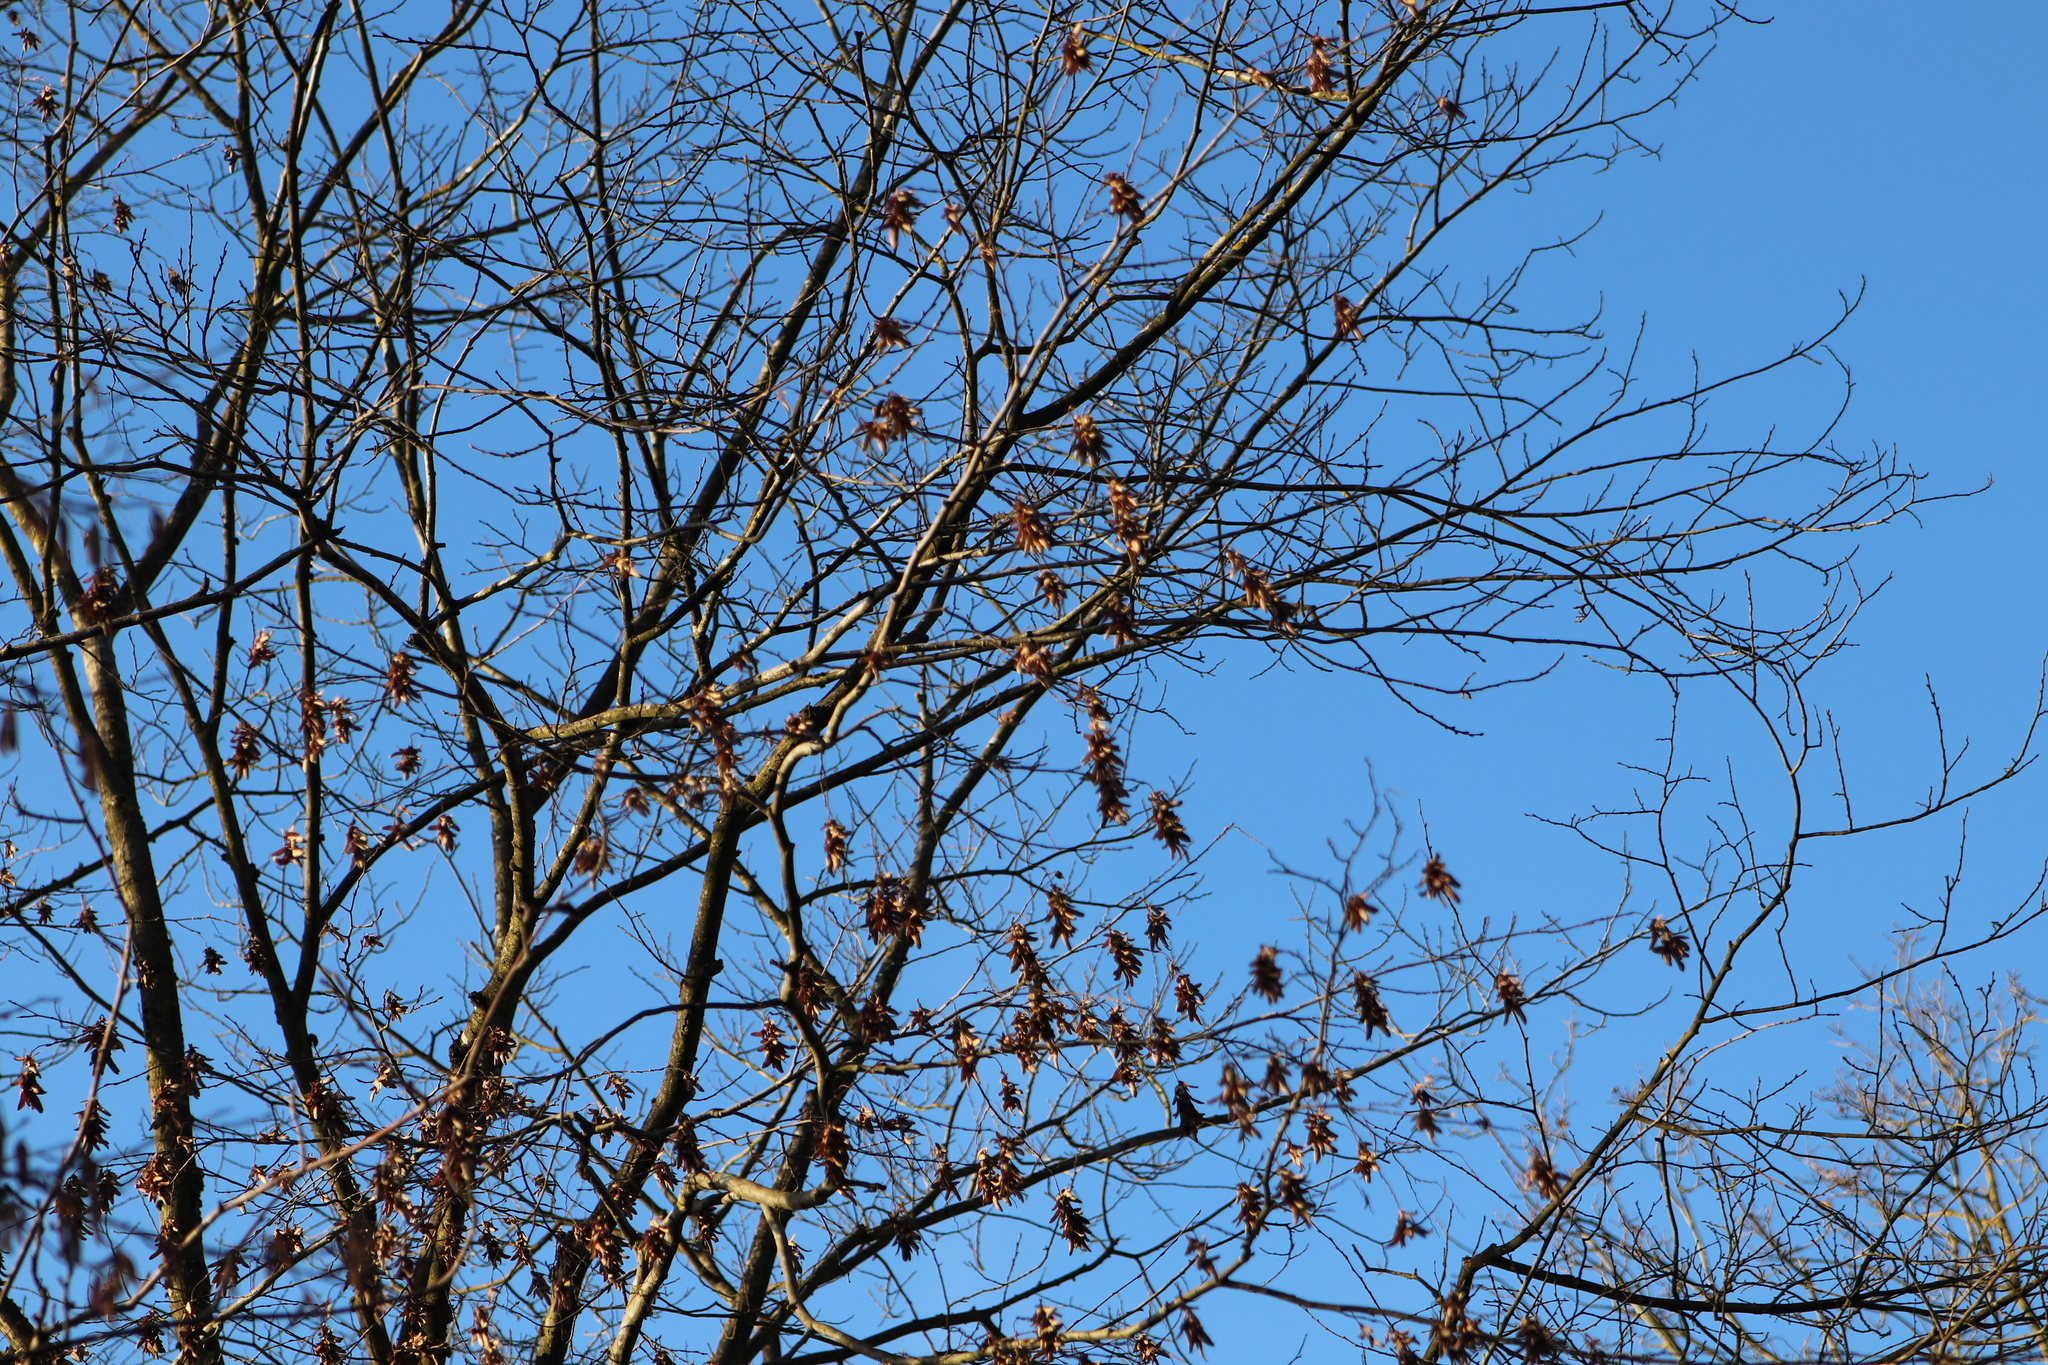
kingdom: Plantae
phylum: Tracheophyta
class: Magnoliopsida
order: Fagales
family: Betulaceae
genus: Carpinus
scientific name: Carpinus betulus
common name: Hornbeam
